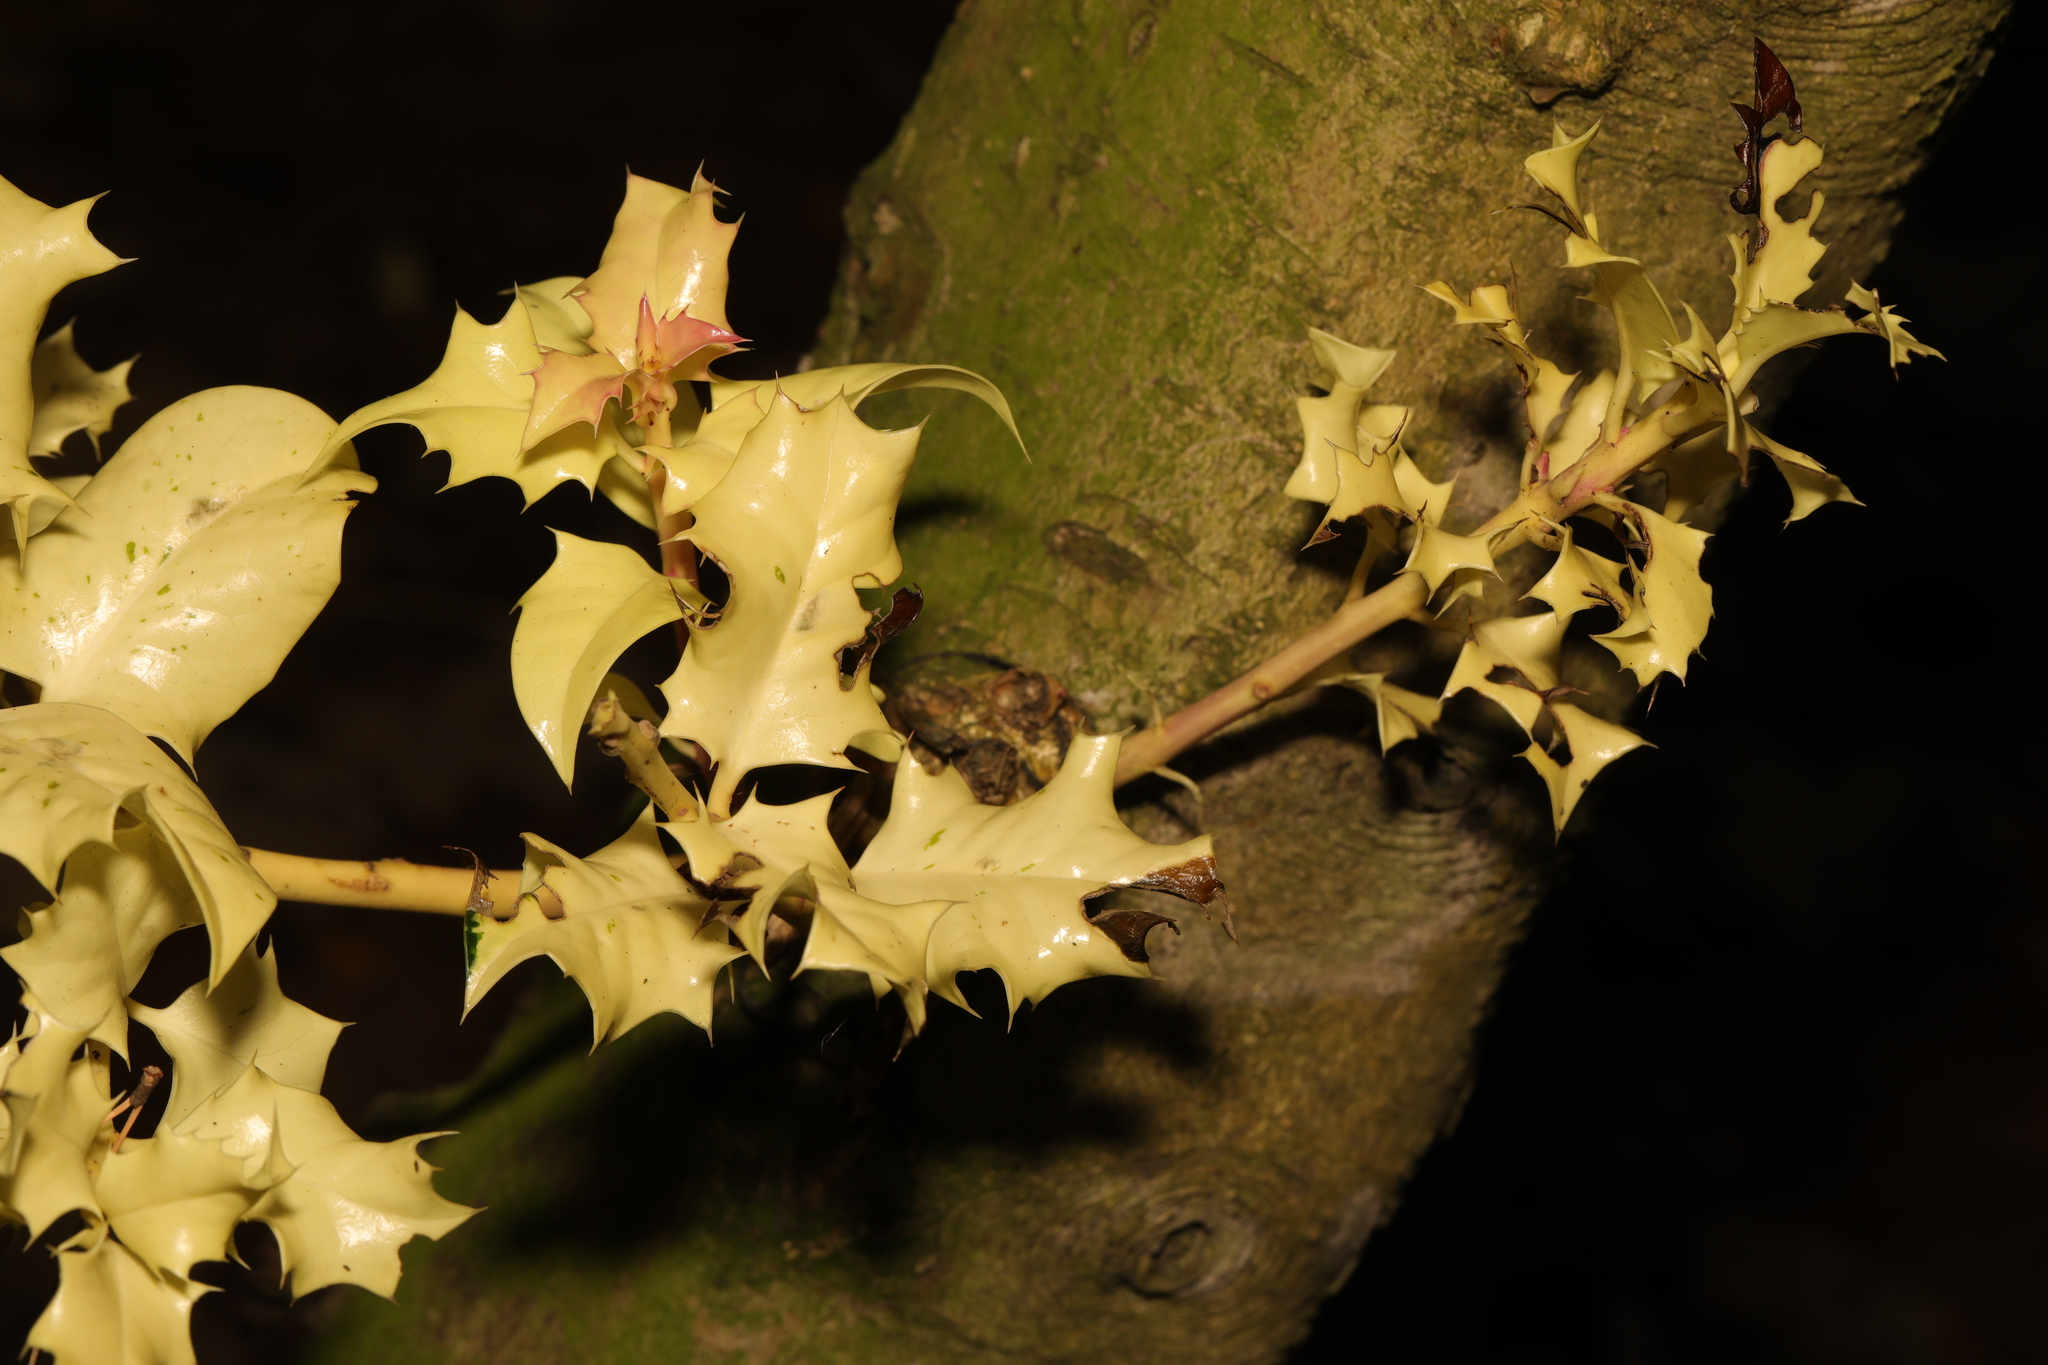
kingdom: Plantae
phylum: Tracheophyta
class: Magnoliopsida
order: Aquifoliales
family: Aquifoliaceae
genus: Ilex
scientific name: Ilex aquifolium
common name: English holly
